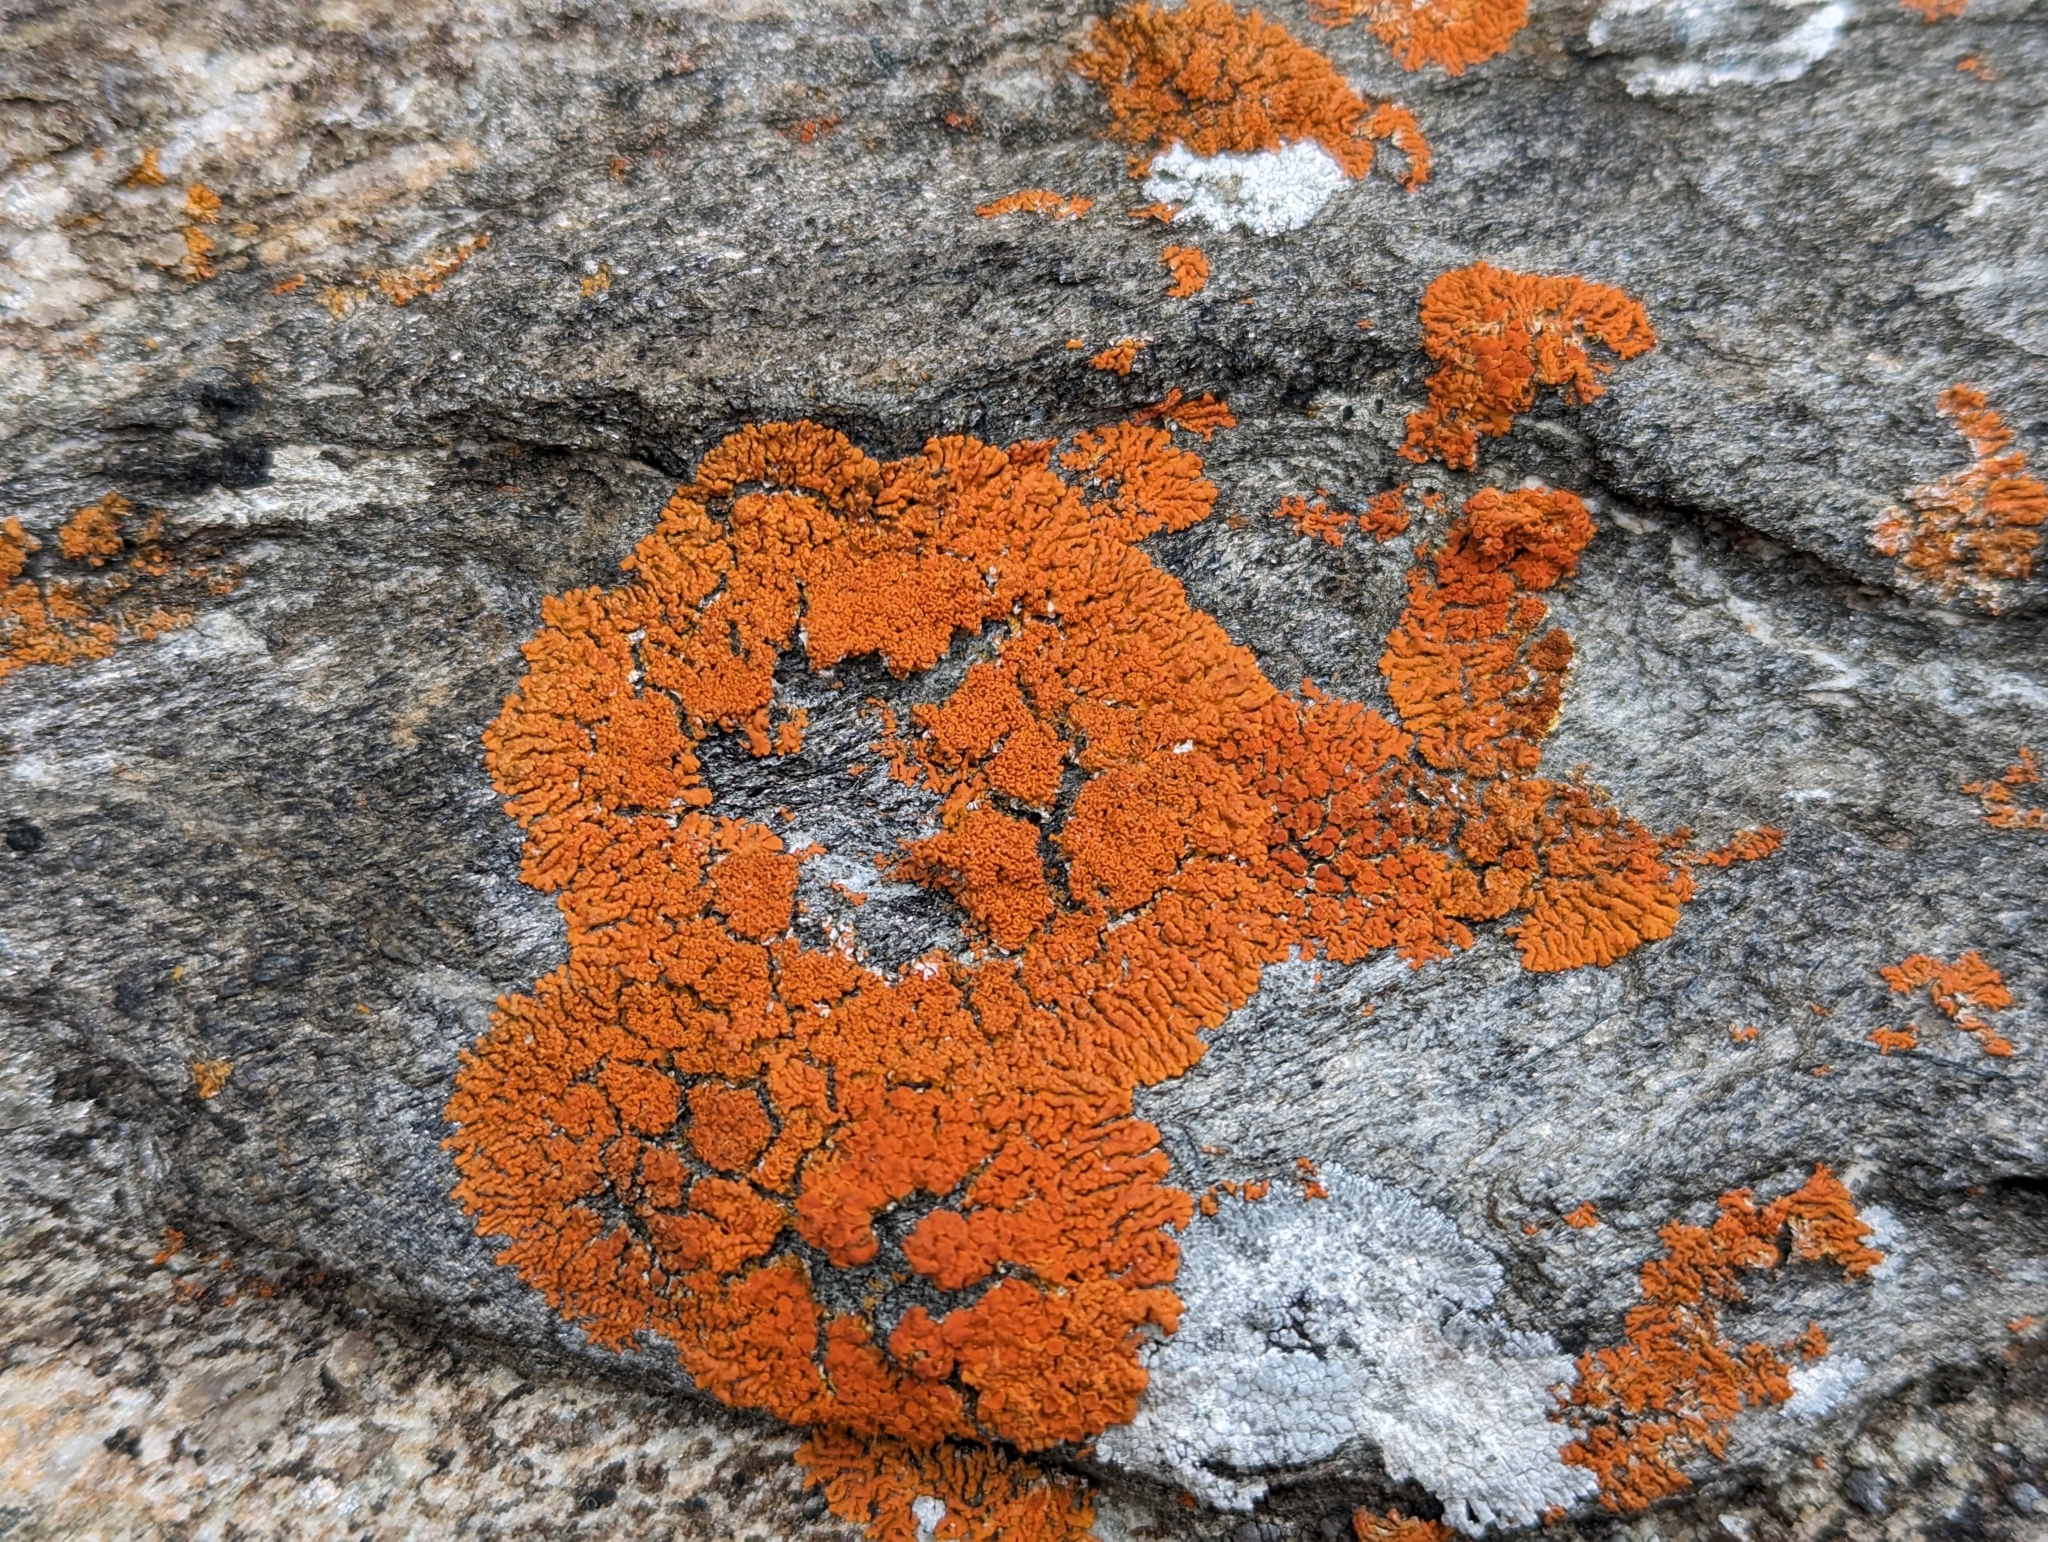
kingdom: Fungi
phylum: Ascomycota
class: Lecanoromycetes
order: Teloschistales
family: Teloschistaceae
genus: Xanthoria
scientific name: Xanthoria elegans
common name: Elegant sunburst lichen
